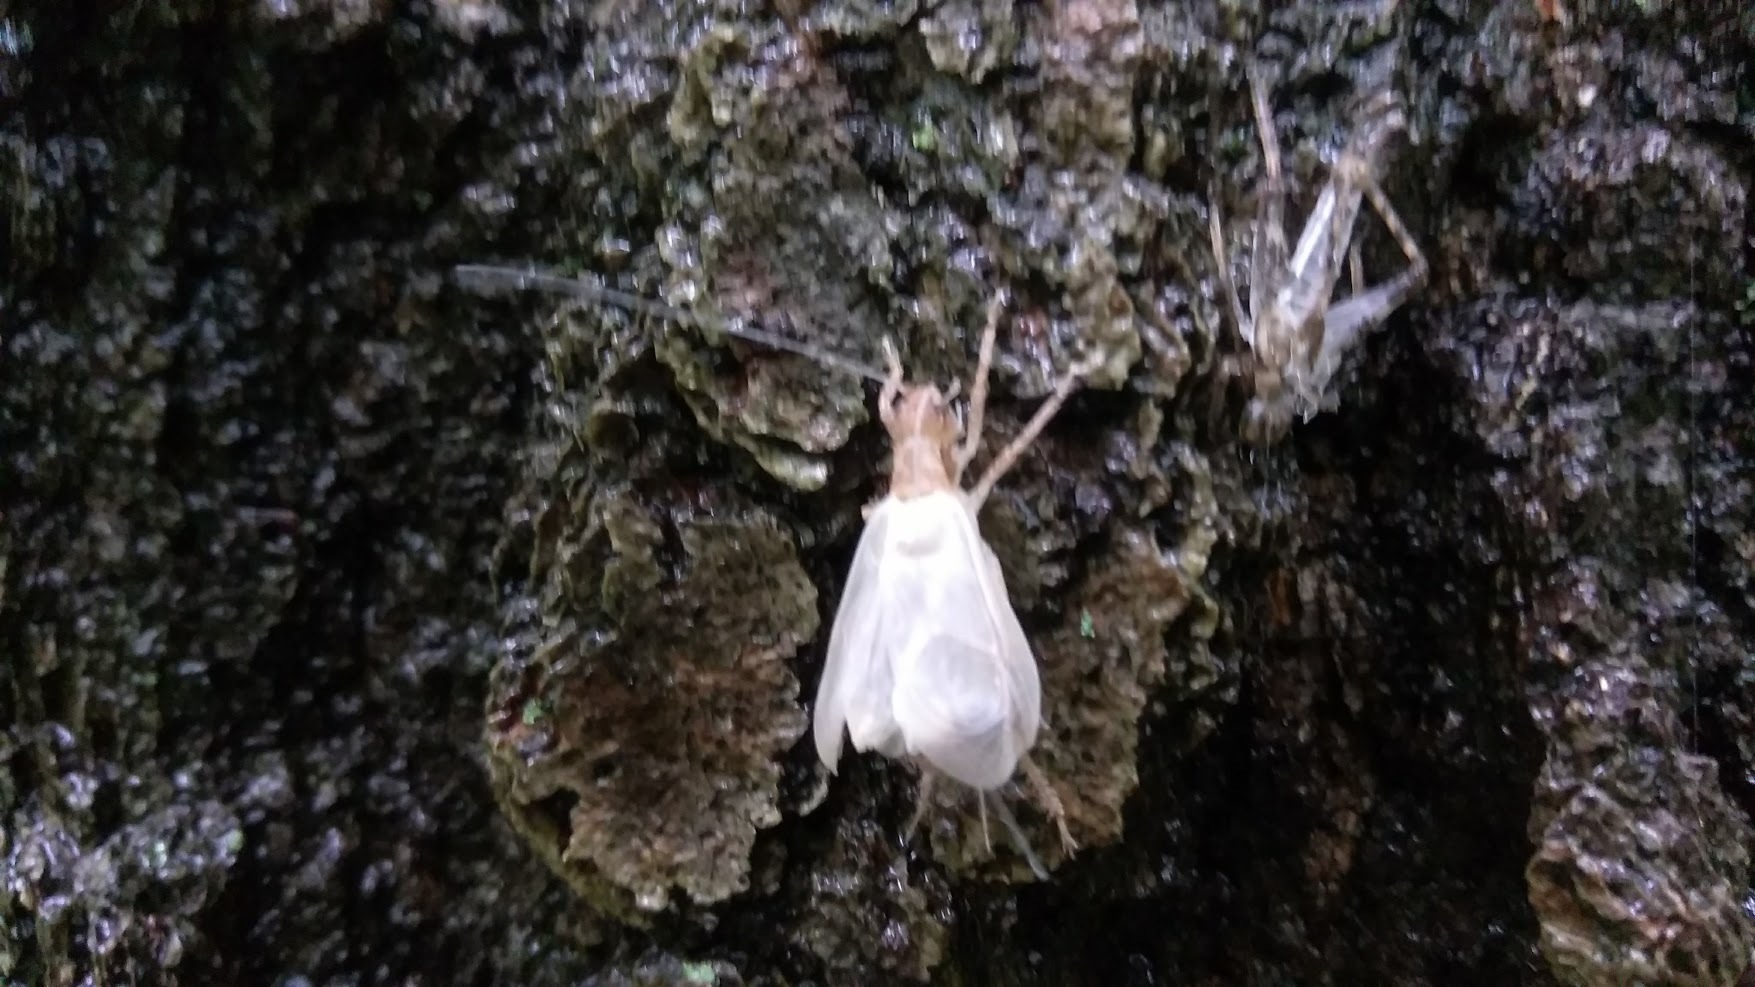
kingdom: Animalia
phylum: Arthropoda
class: Insecta
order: Orthoptera
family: Gryllidae
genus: Hapithus
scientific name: Hapithus saltator
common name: Jumping bush cricket
